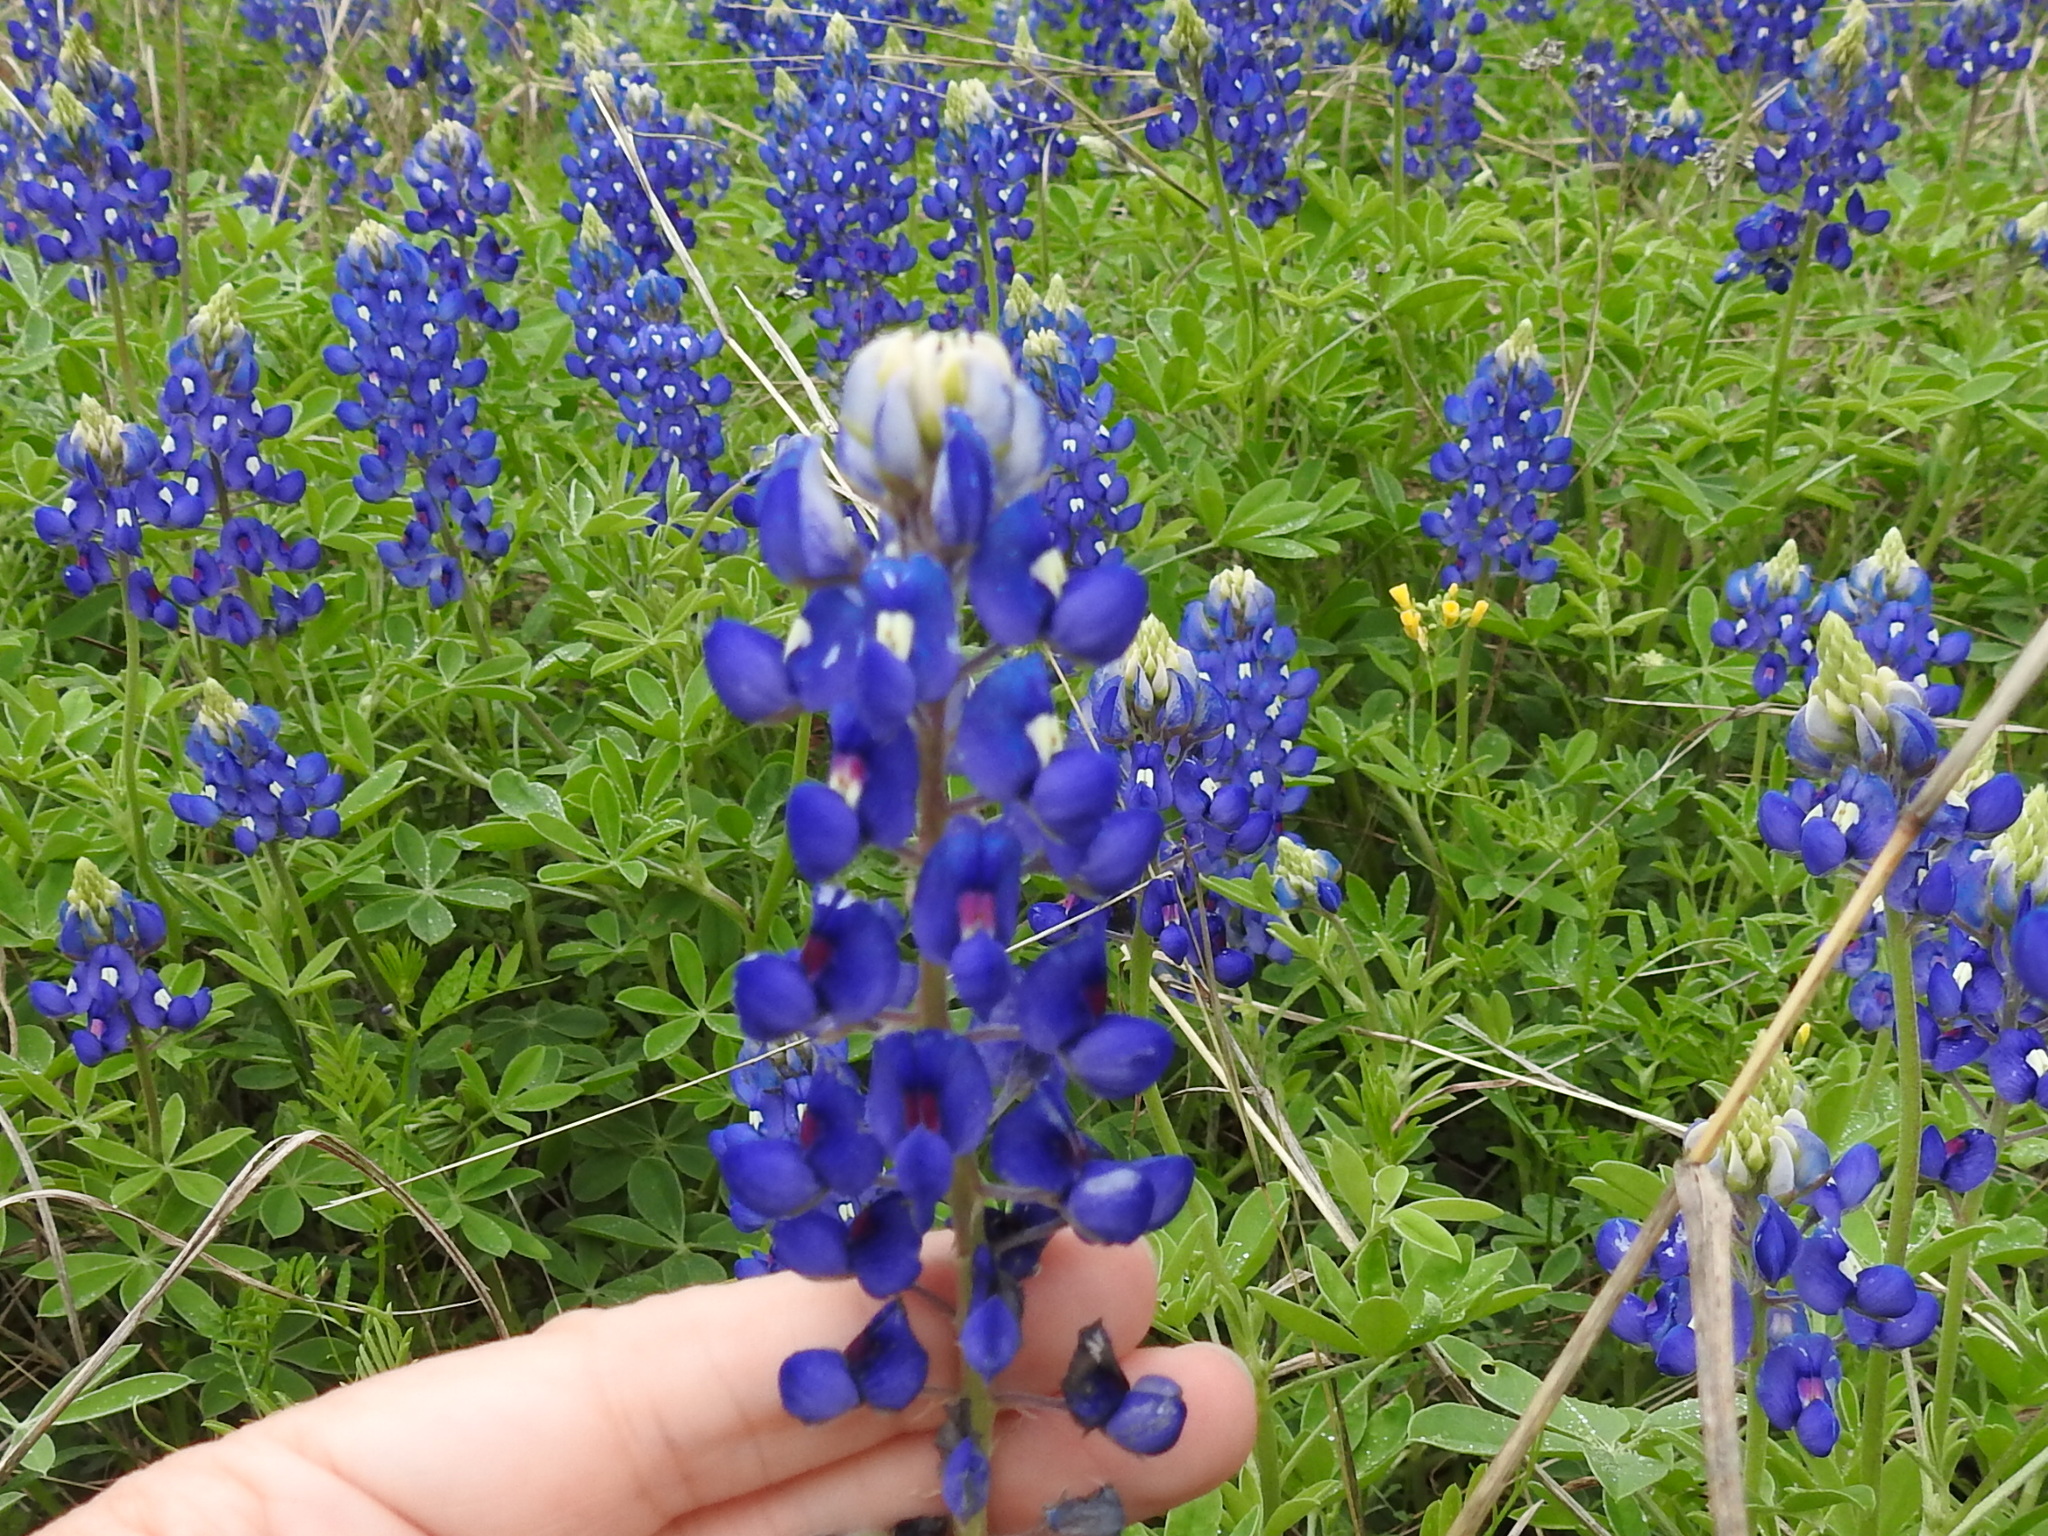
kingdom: Plantae
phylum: Tracheophyta
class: Magnoliopsida
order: Fabales
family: Fabaceae
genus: Lupinus
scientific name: Lupinus texensis
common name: Texas bluebonnet
